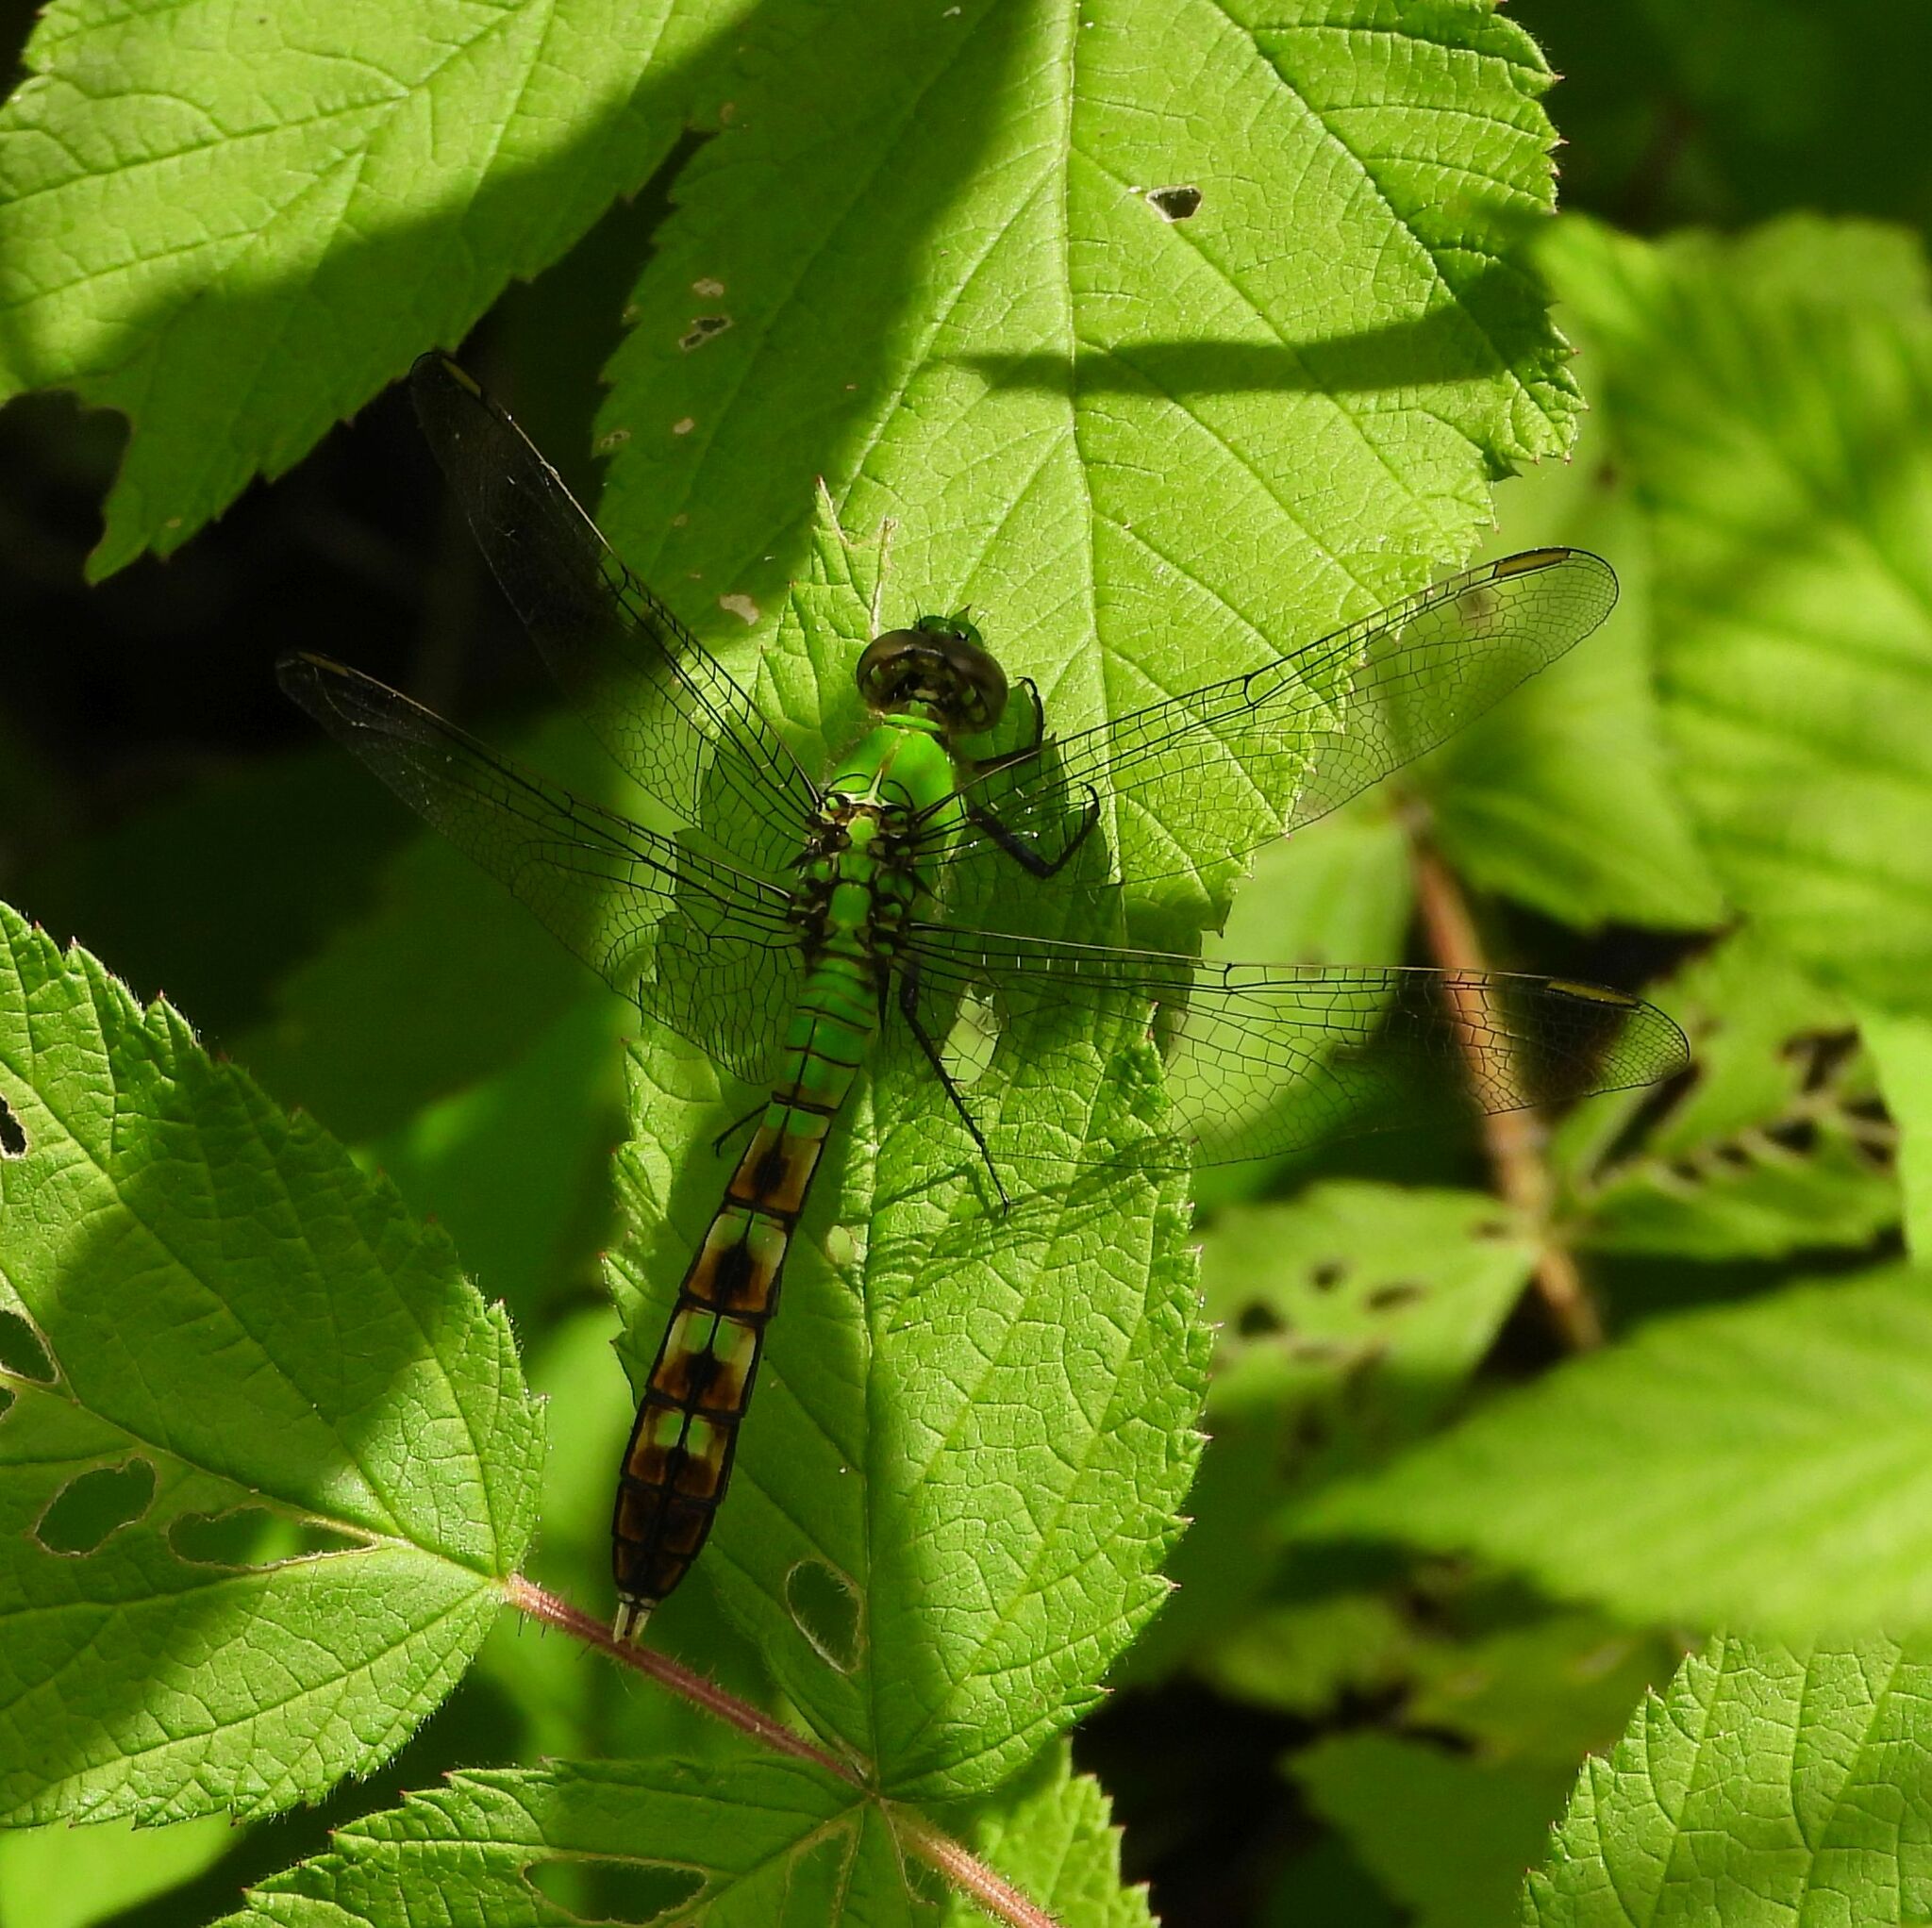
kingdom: Animalia
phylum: Arthropoda
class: Insecta
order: Odonata
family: Libellulidae
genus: Erythemis
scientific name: Erythemis simplicicollis
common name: Eastern pondhawk
